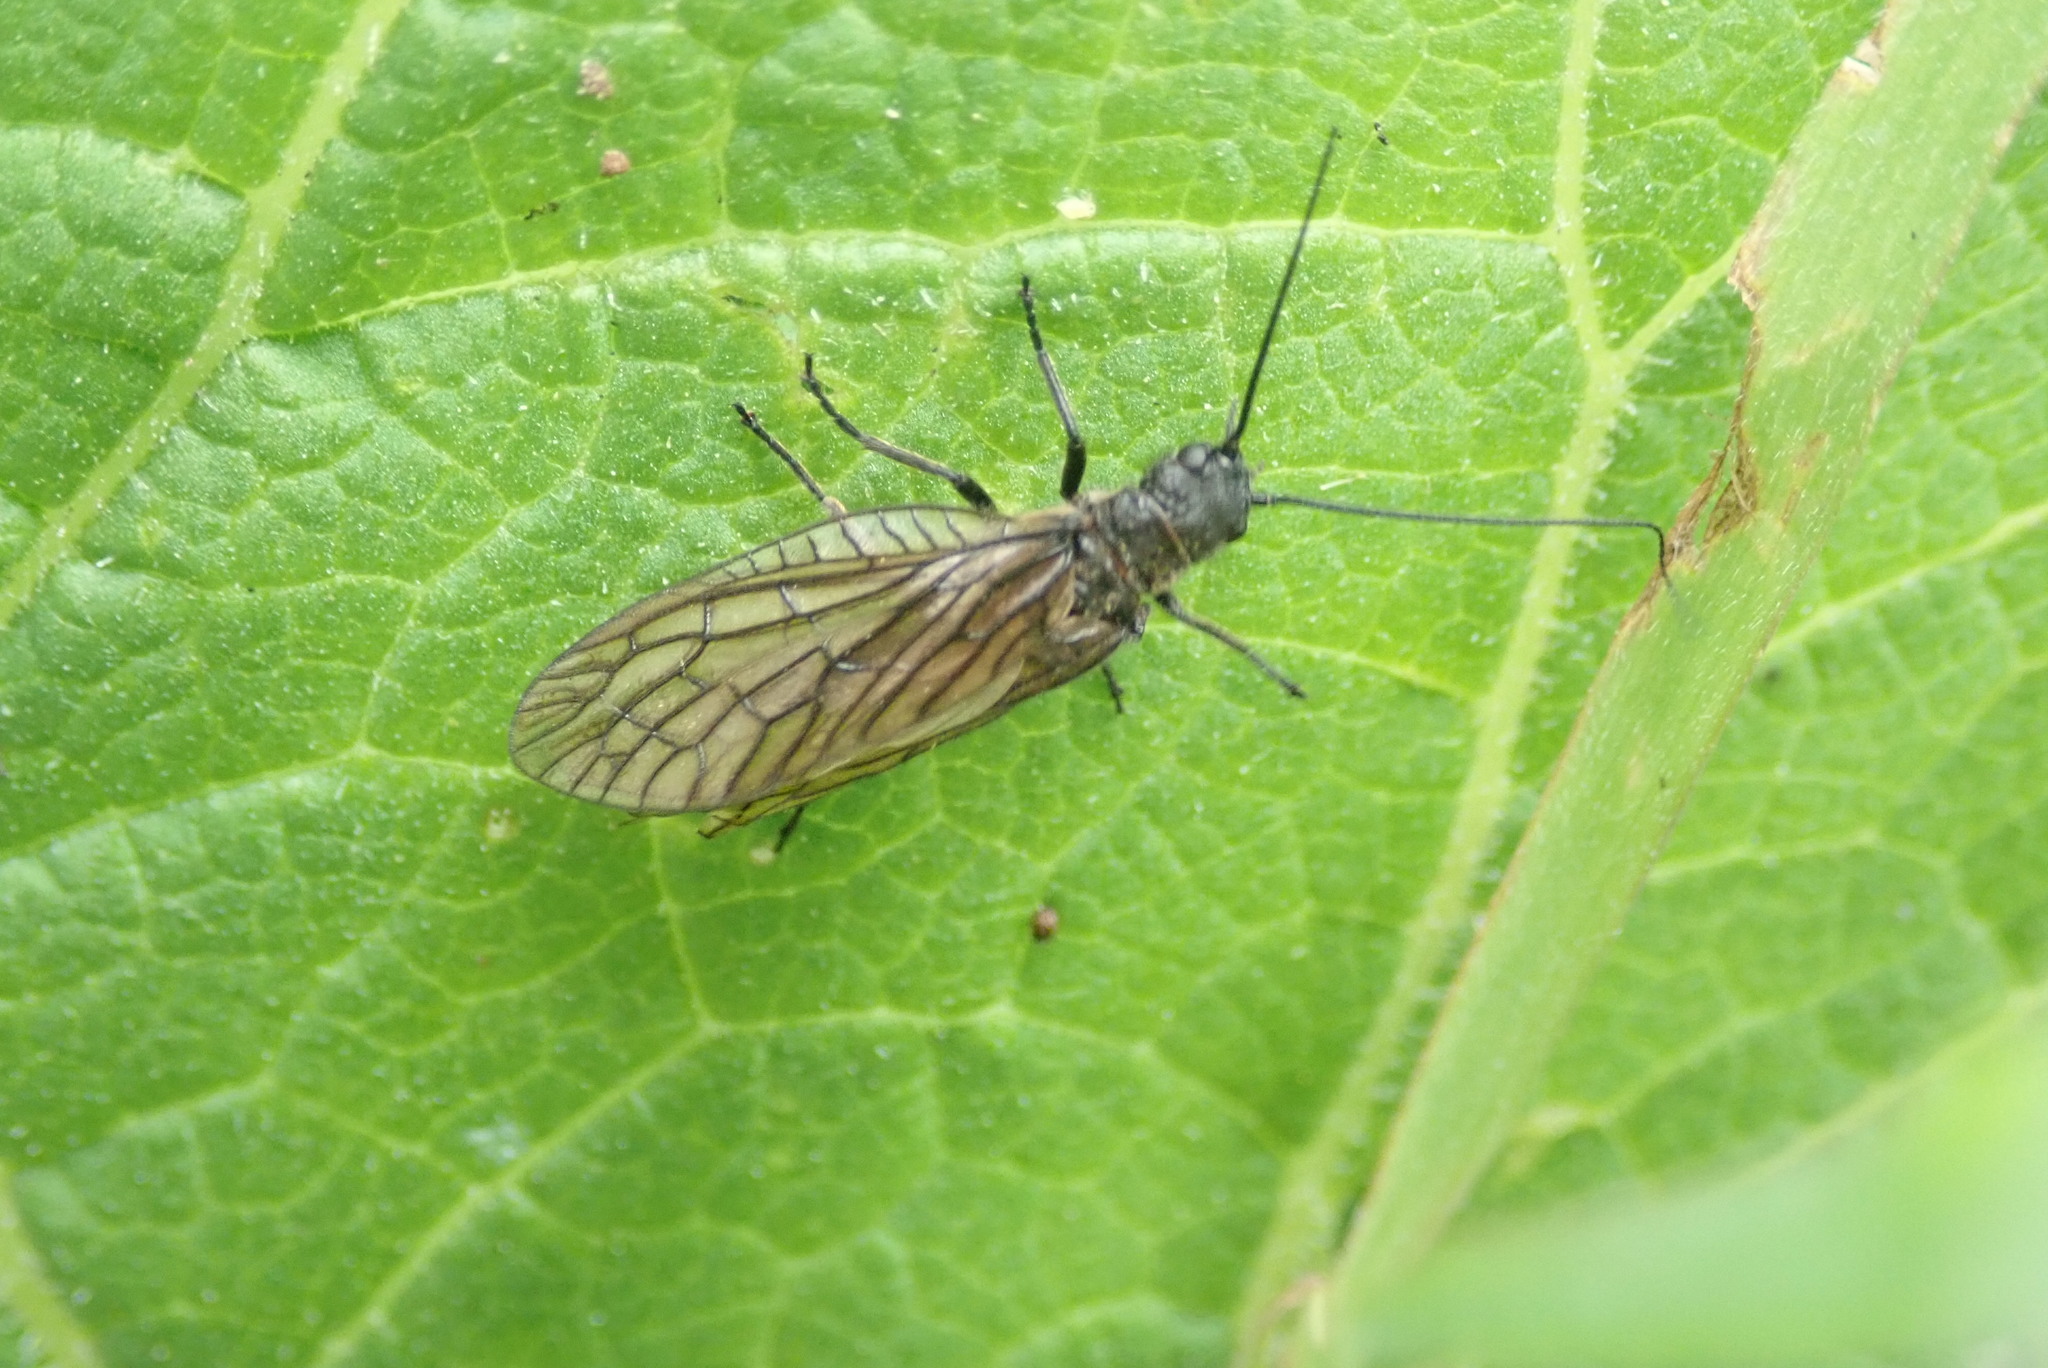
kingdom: Animalia
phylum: Arthropoda
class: Insecta
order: Megaloptera
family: Sialidae
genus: Sialis
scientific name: Sialis
